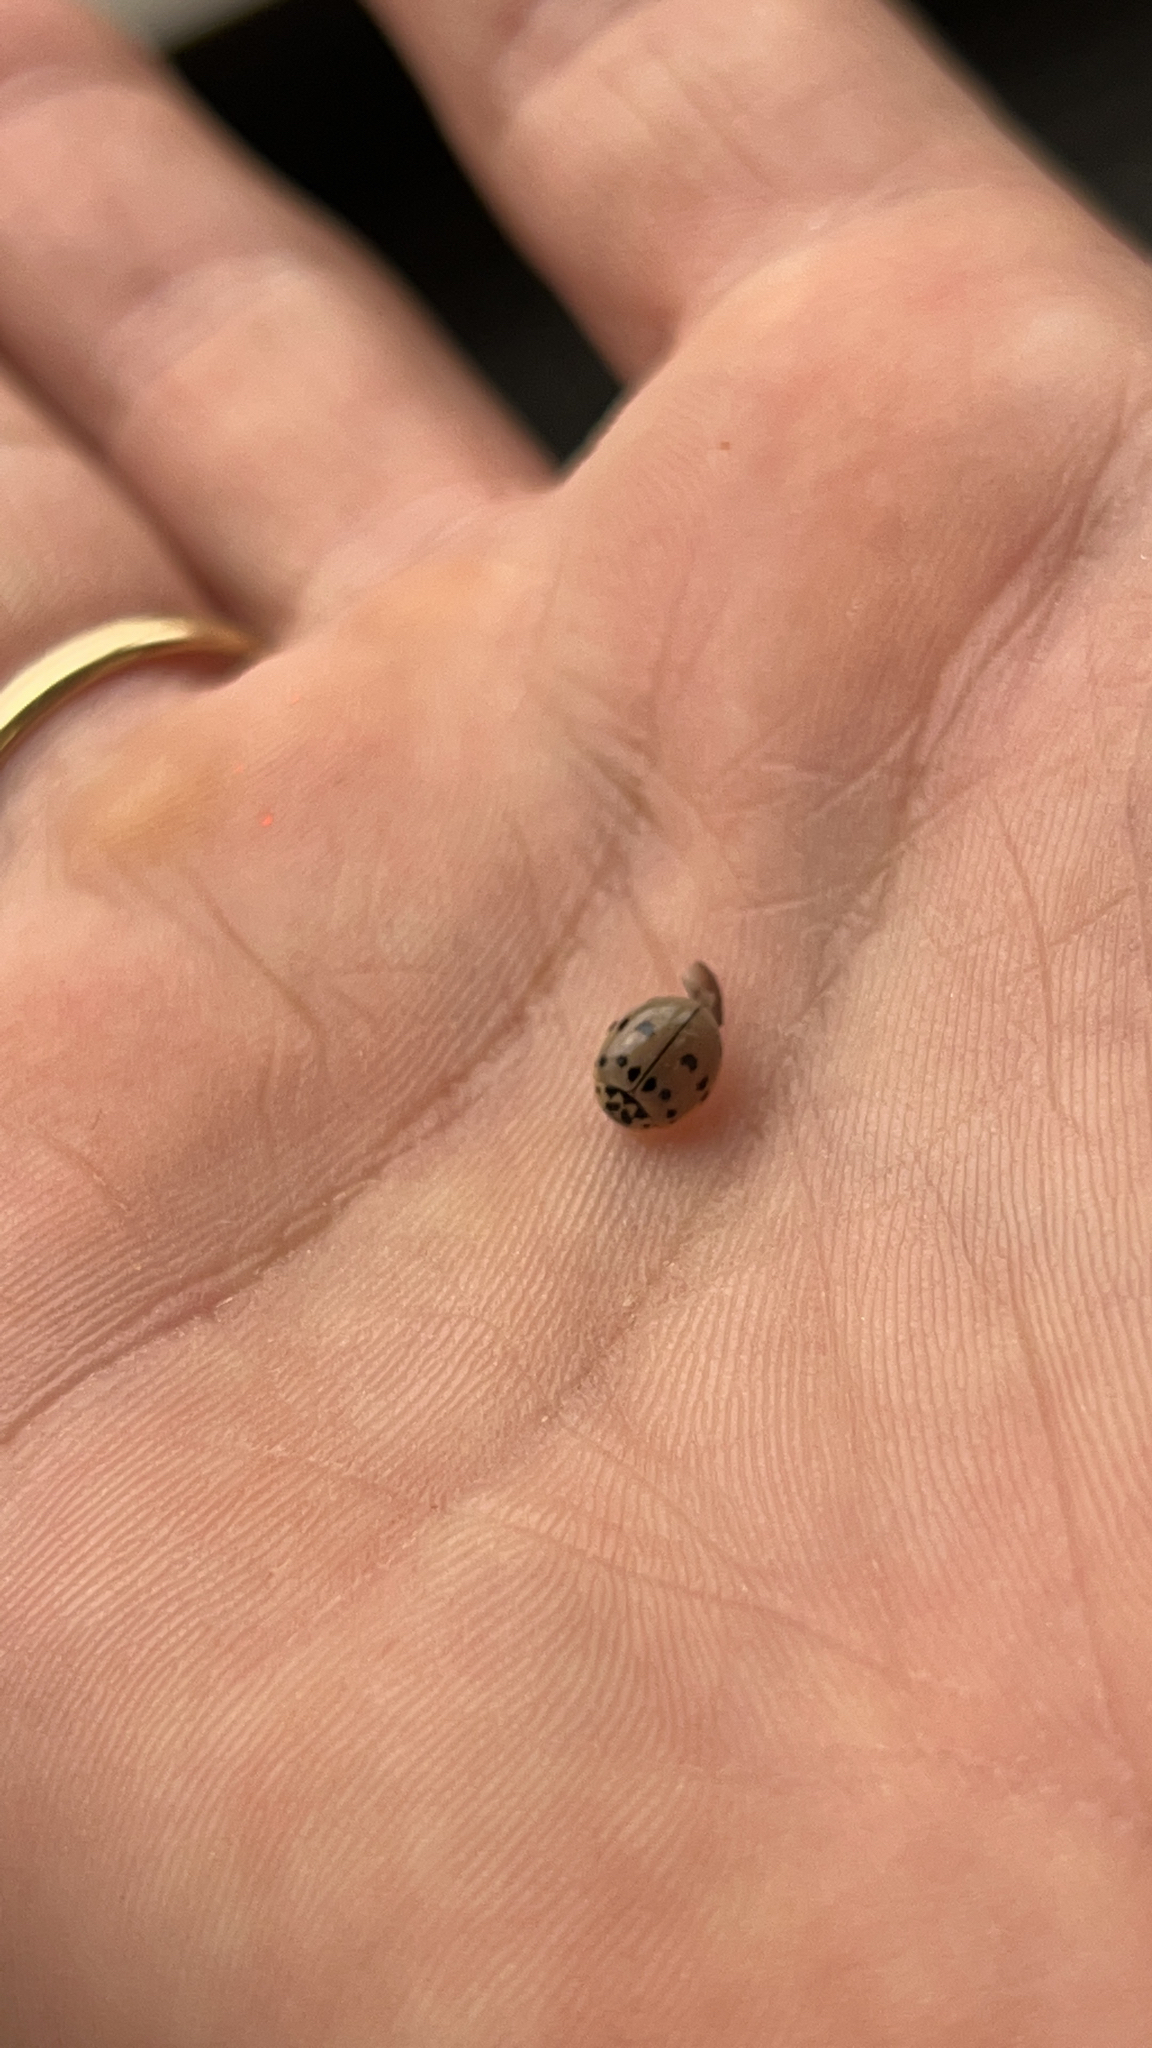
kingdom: Animalia
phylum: Arthropoda
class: Insecta
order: Coleoptera
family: Coccinellidae
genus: Olla
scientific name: Olla v-nigrum
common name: Ashy gray lady beetle
